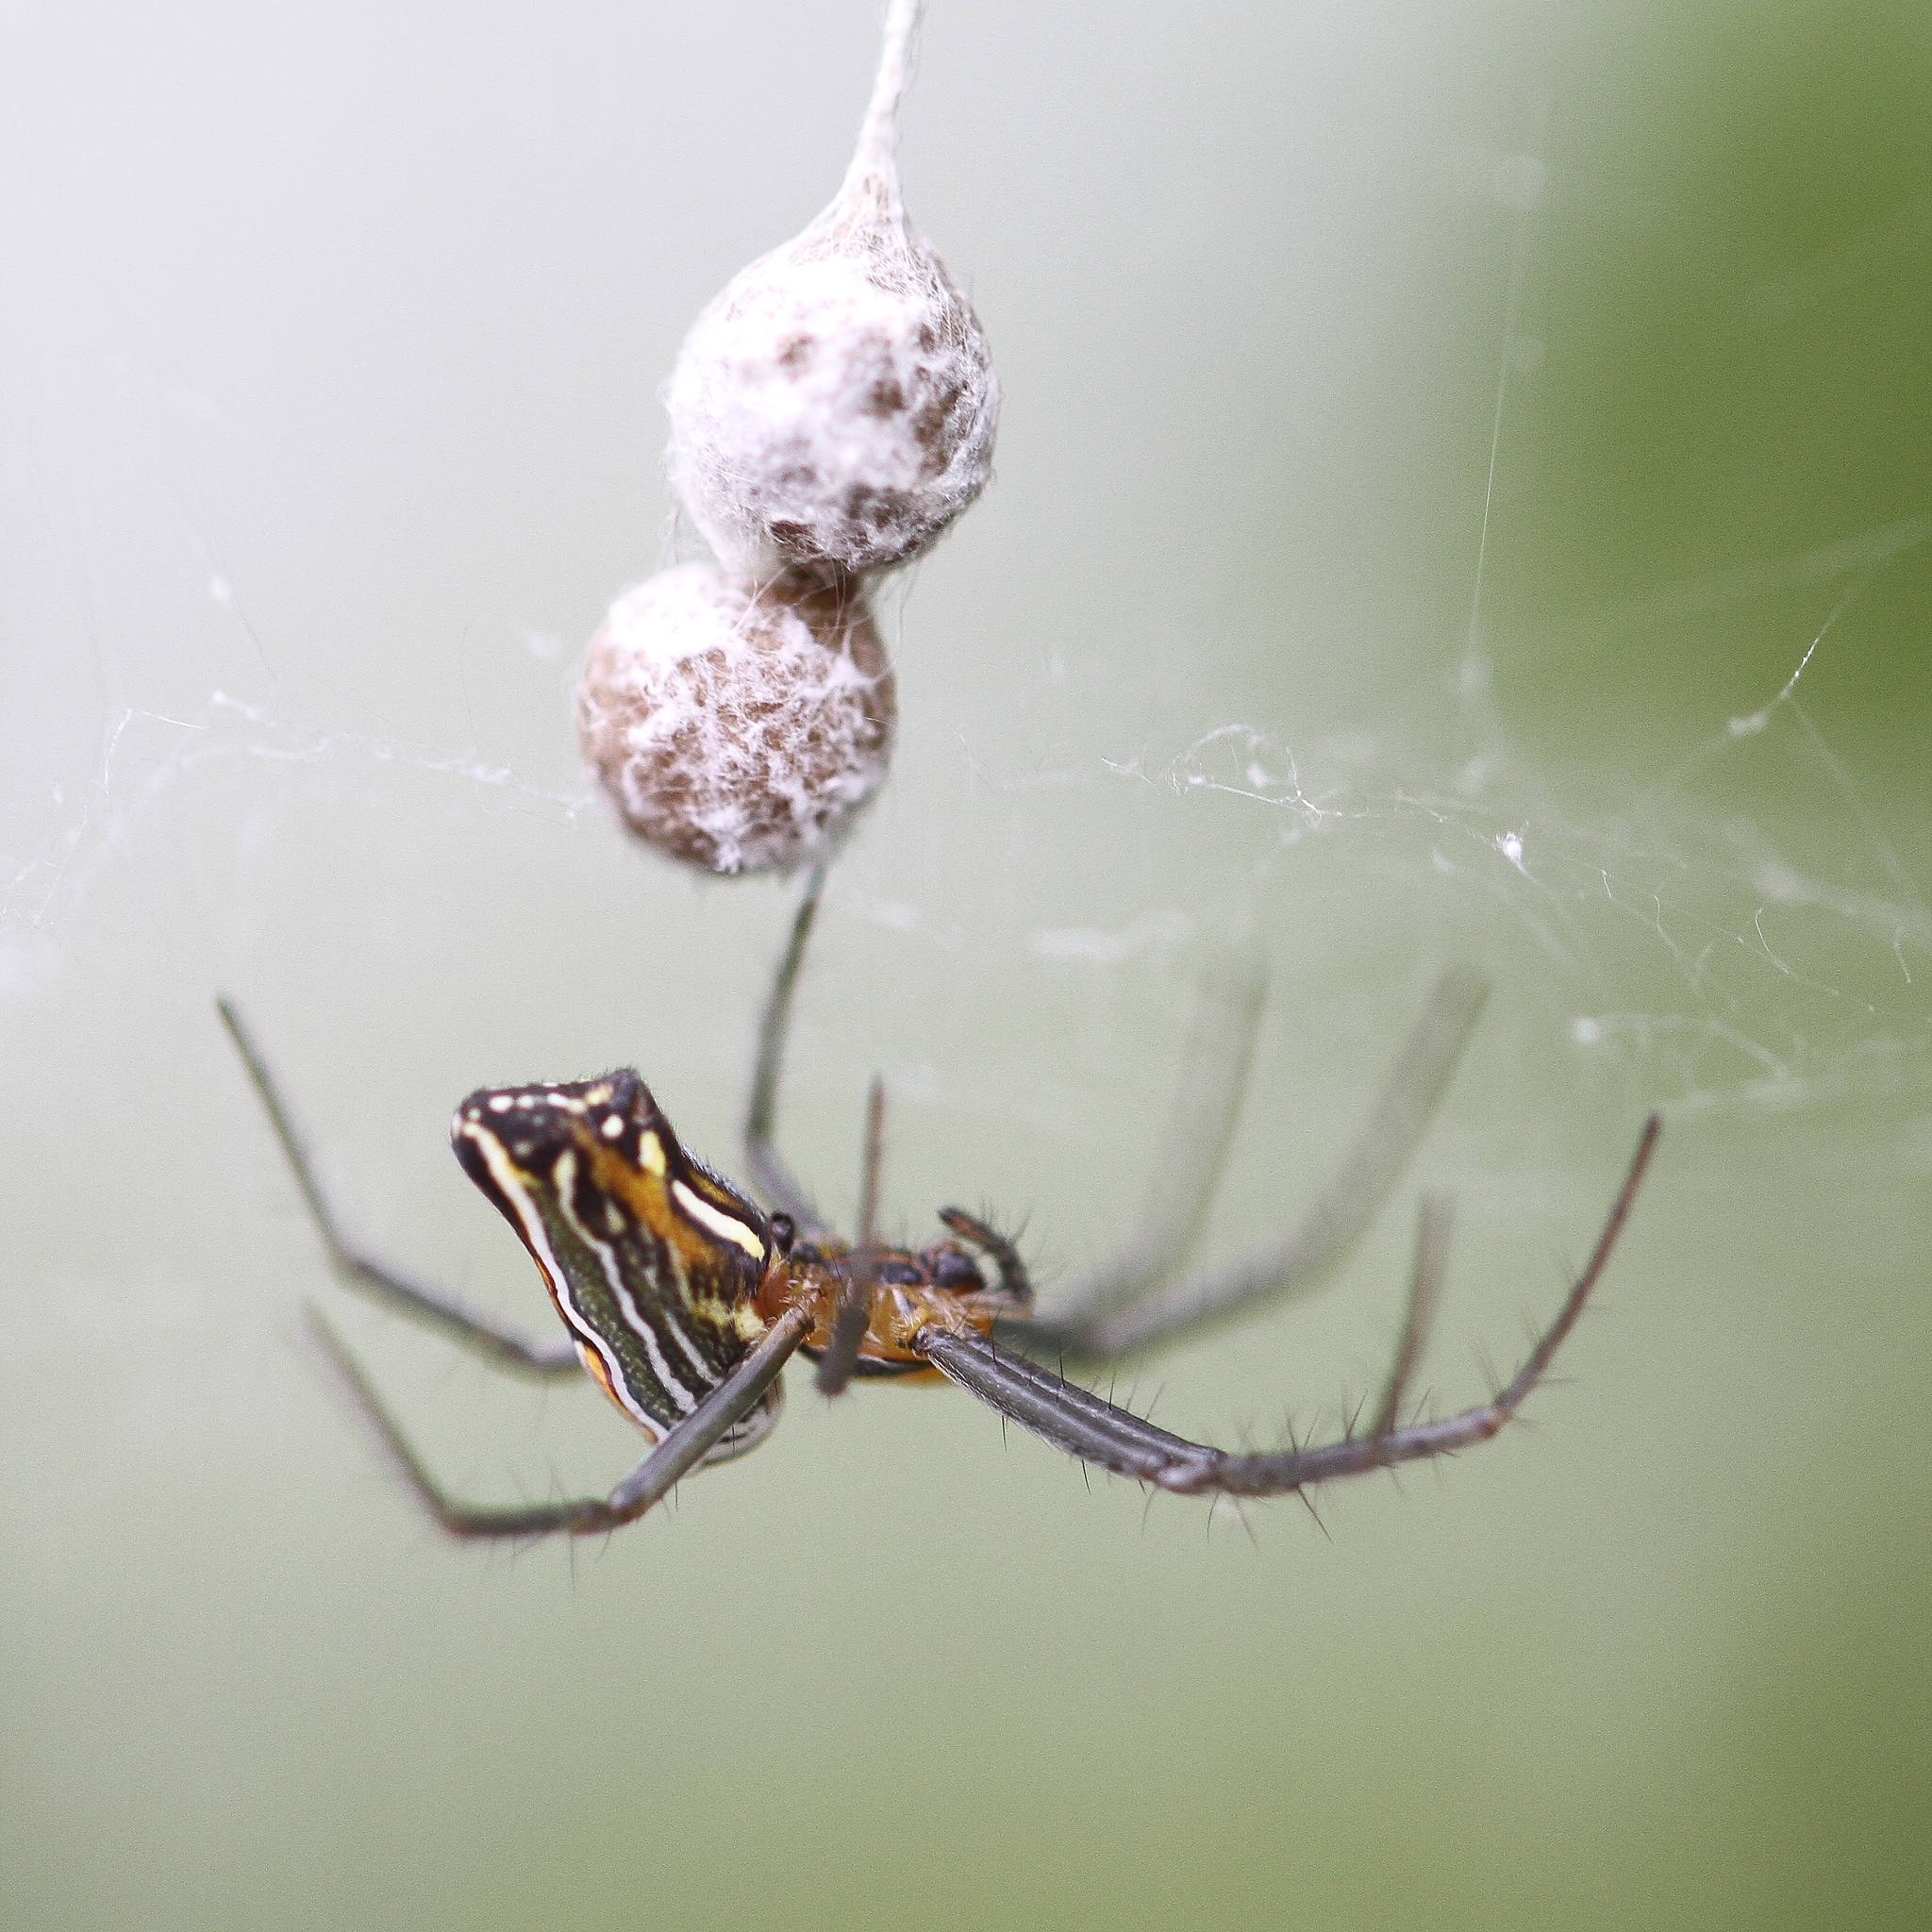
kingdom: Animalia
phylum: Arthropoda
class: Arachnida
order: Araneae
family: Araneidae
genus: Mecynogea
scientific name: Mecynogea lemniscata
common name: Orb weavers
